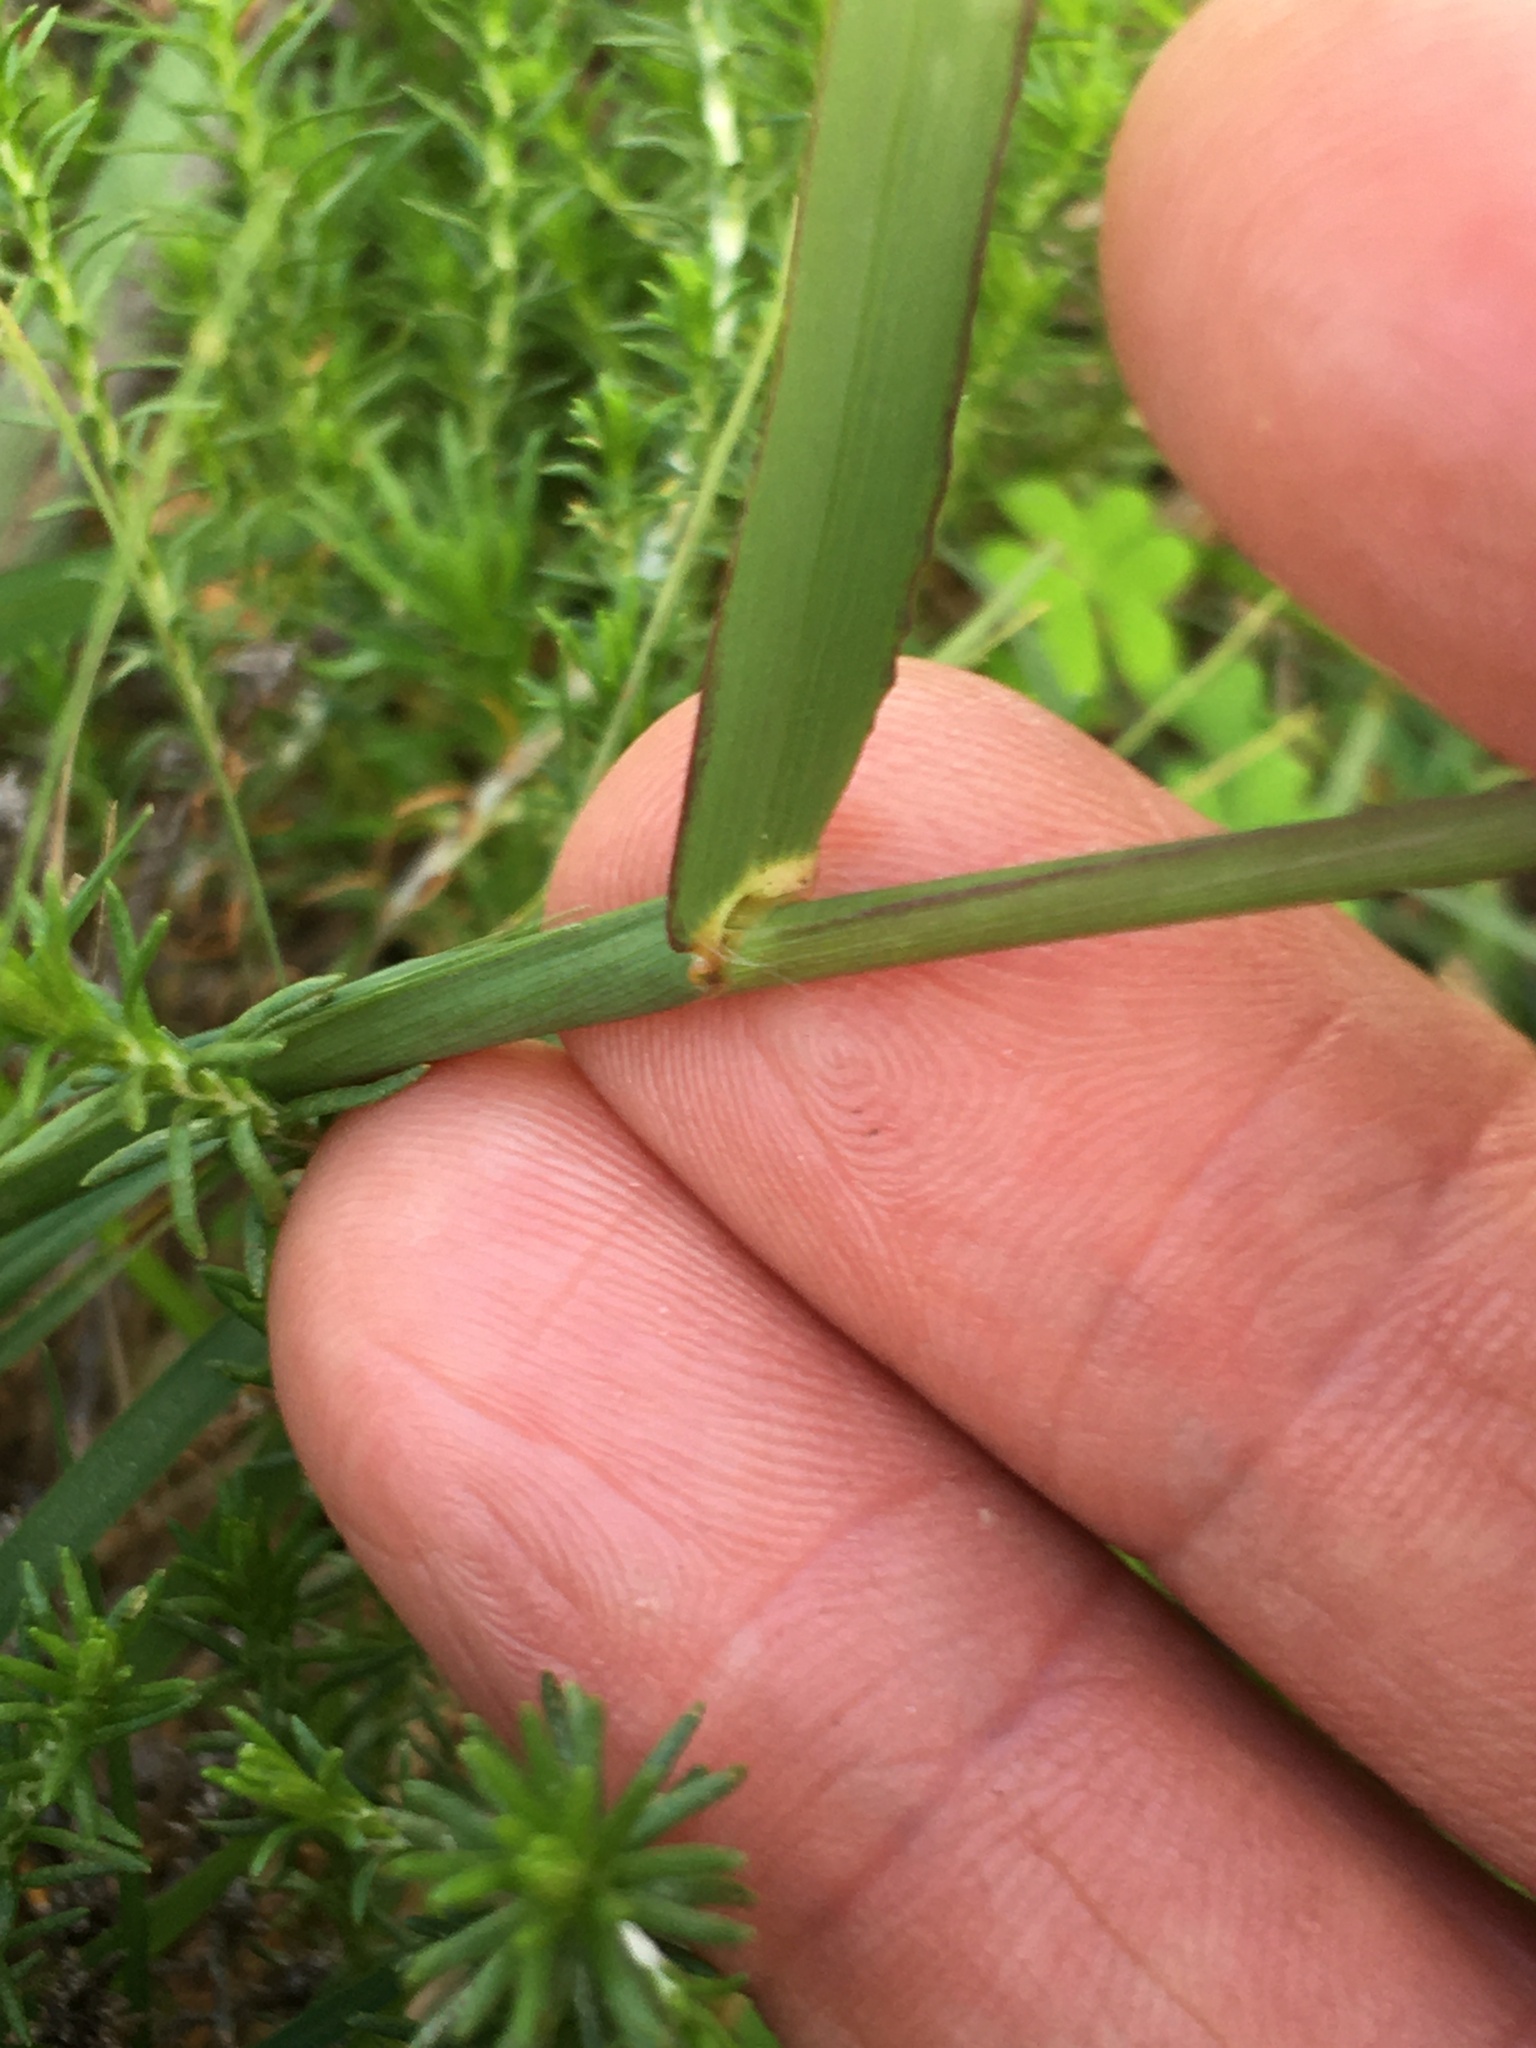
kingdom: Plantae
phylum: Tracheophyta
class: Liliopsida
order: Poales
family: Poaceae
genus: Paspalum
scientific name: Paspalum dilatatum
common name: Dallisgrass
